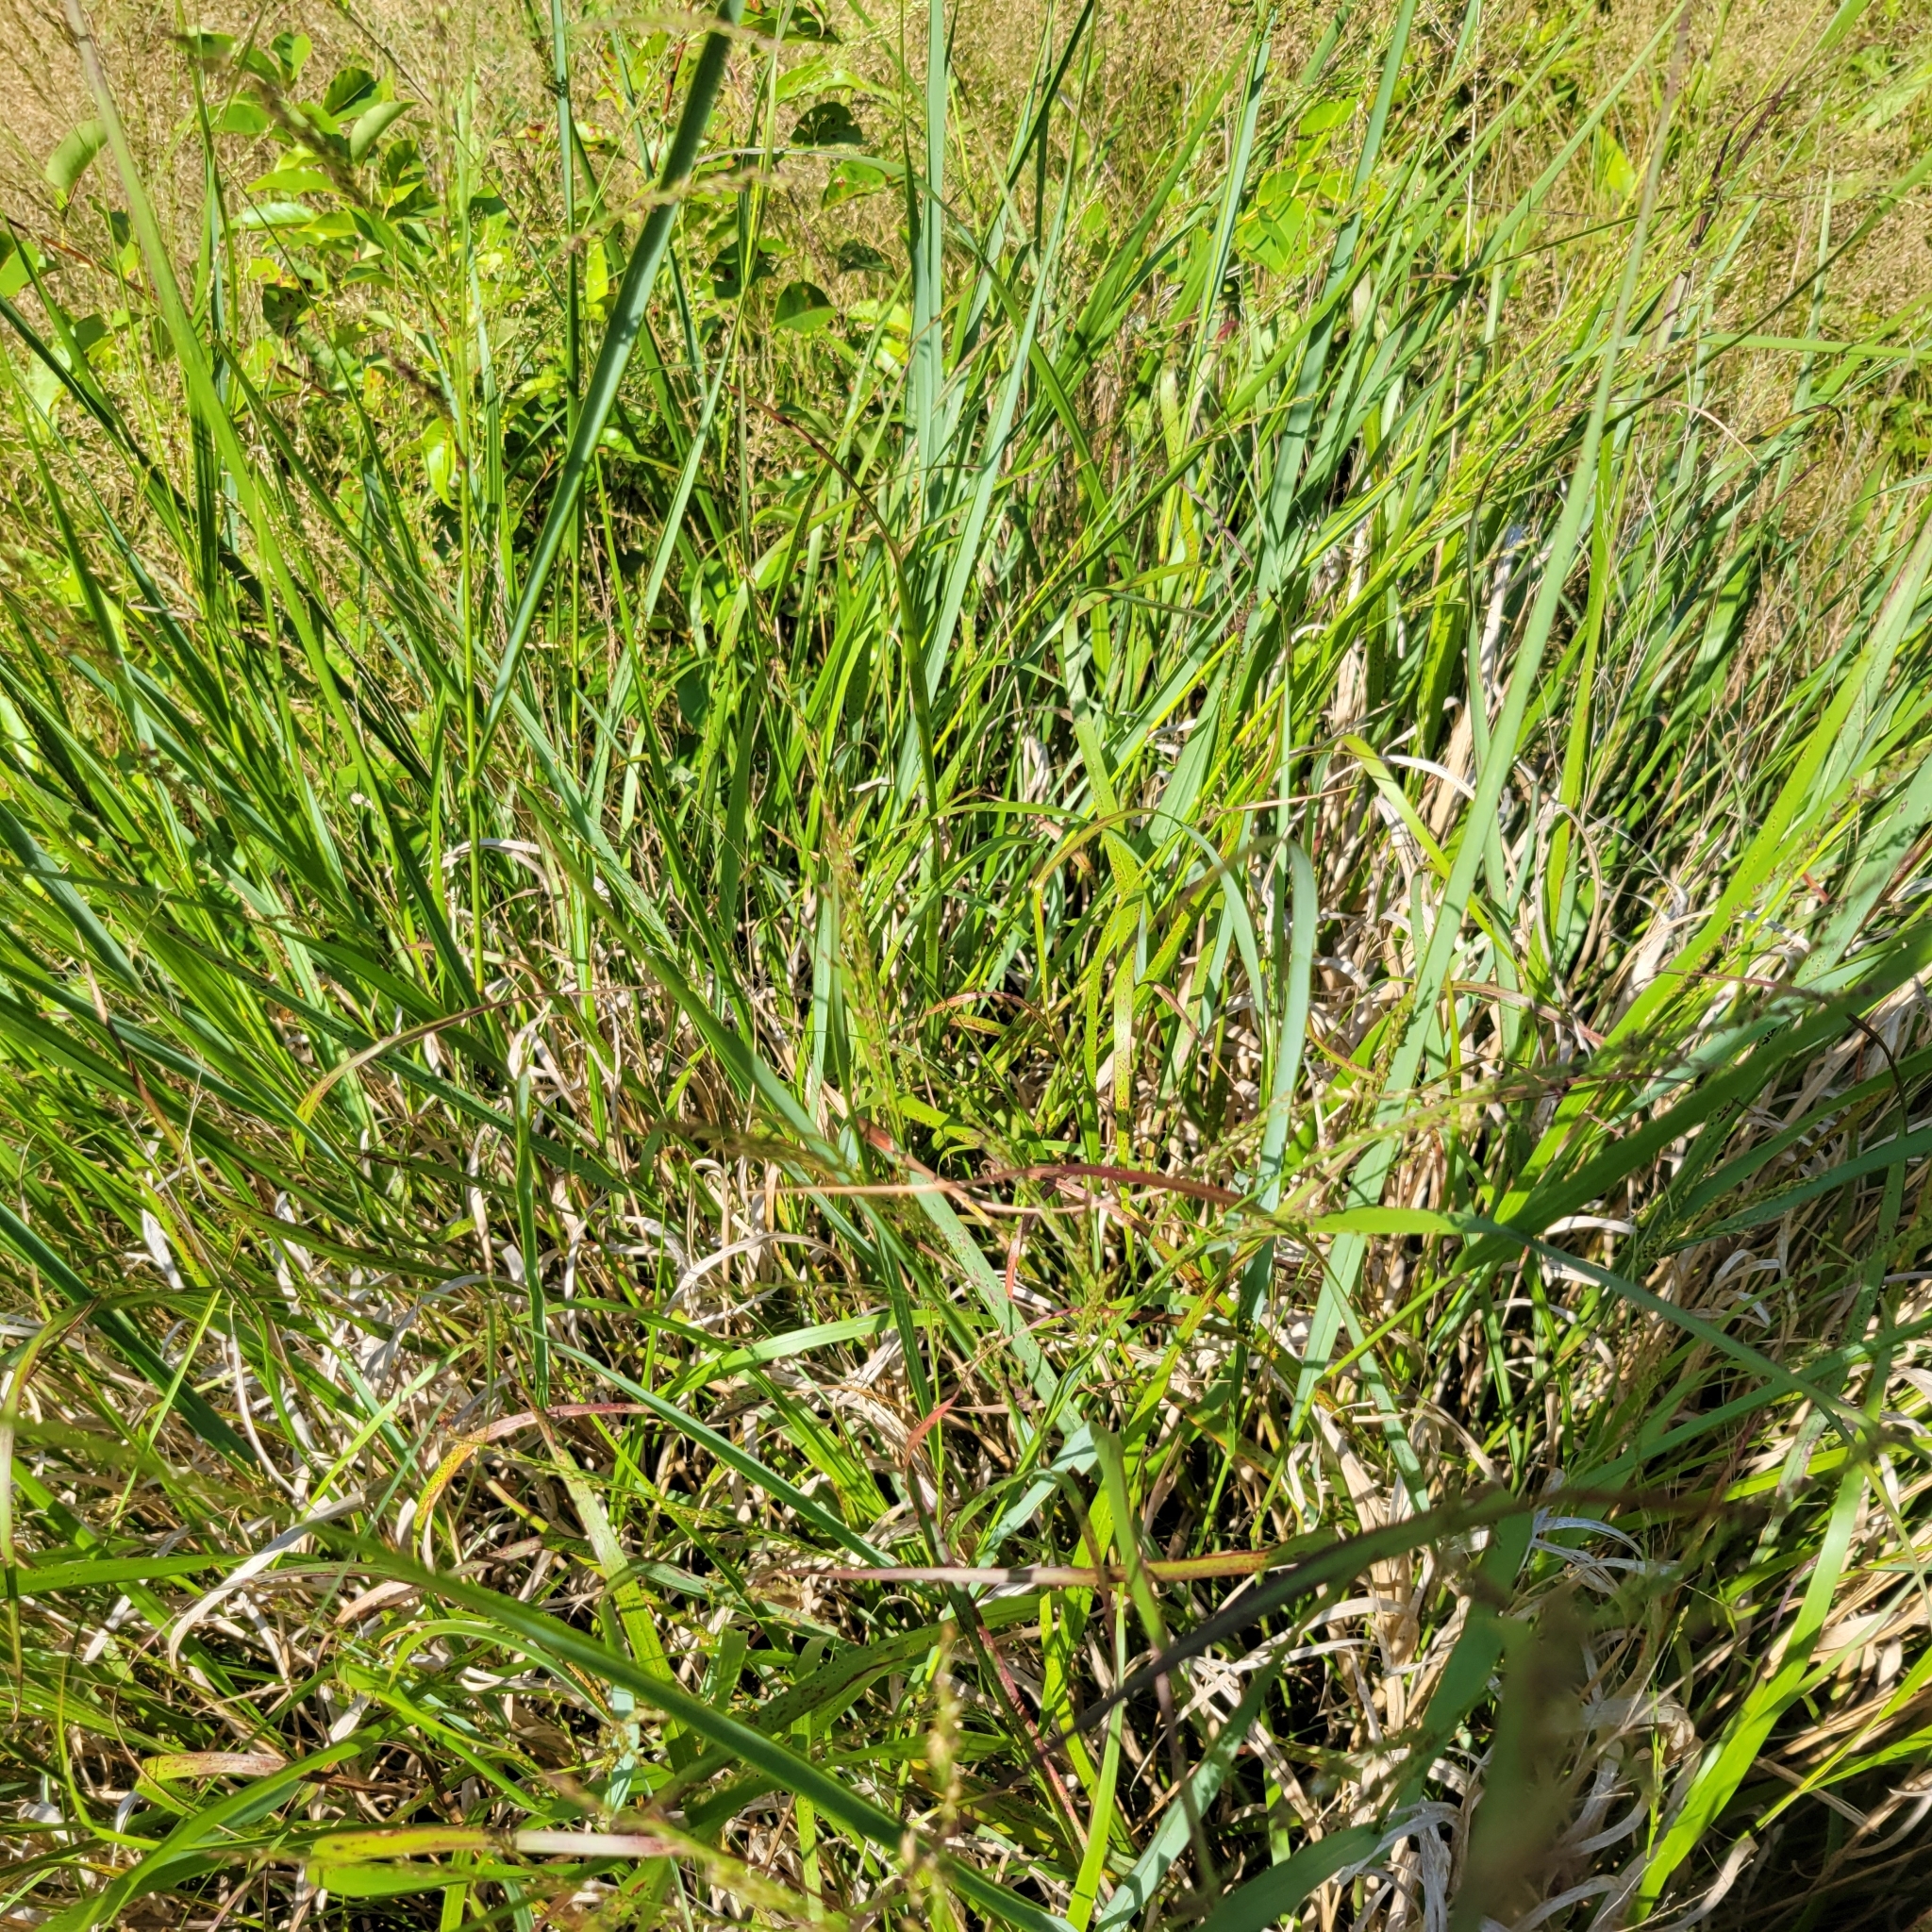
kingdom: Plantae
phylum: Tracheophyta
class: Liliopsida
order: Poales
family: Poaceae
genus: Panicum
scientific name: Panicum virgatum
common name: Switchgrass
